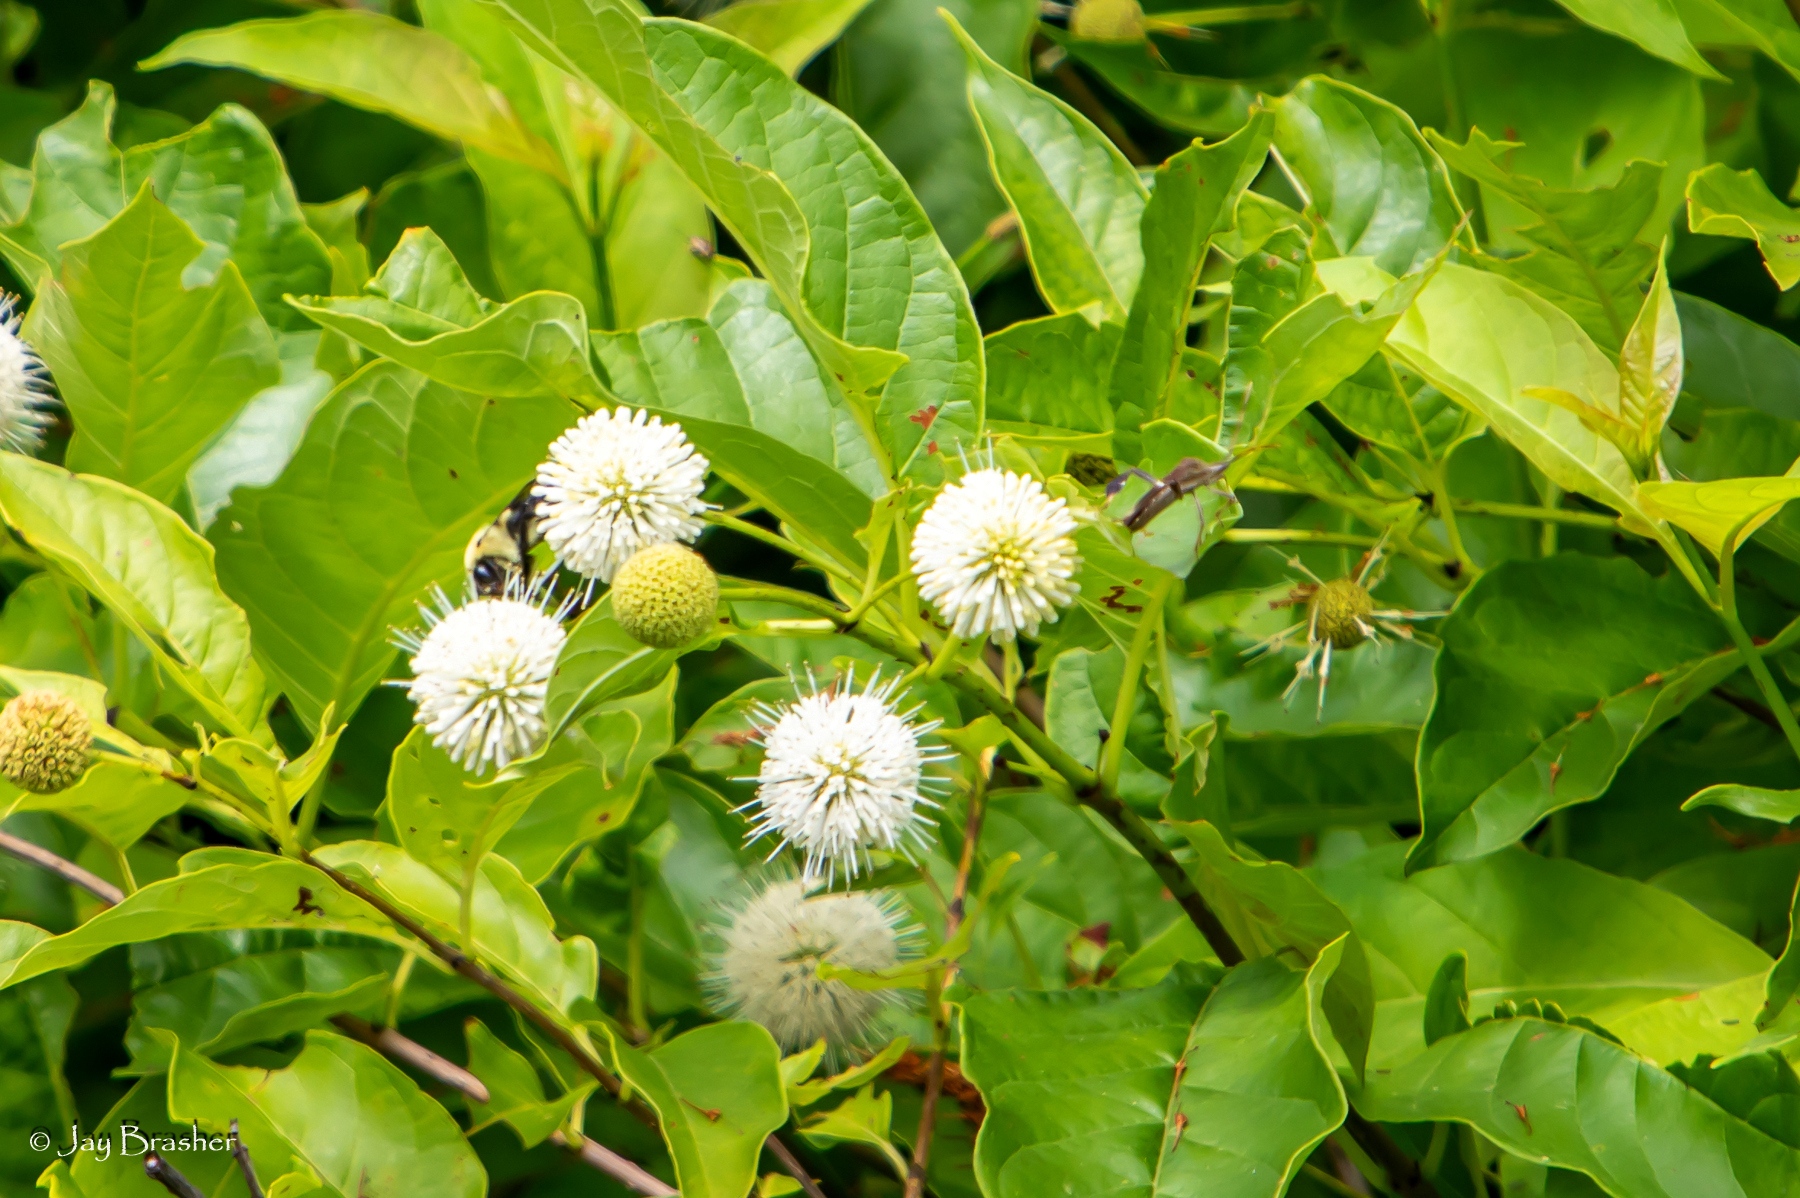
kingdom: Plantae
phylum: Tracheophyta
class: Magnoliopsida
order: Gentianales
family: Rubiaceae
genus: Cephalanthus
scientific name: Cephalanthus occidentalis
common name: Button-willow
